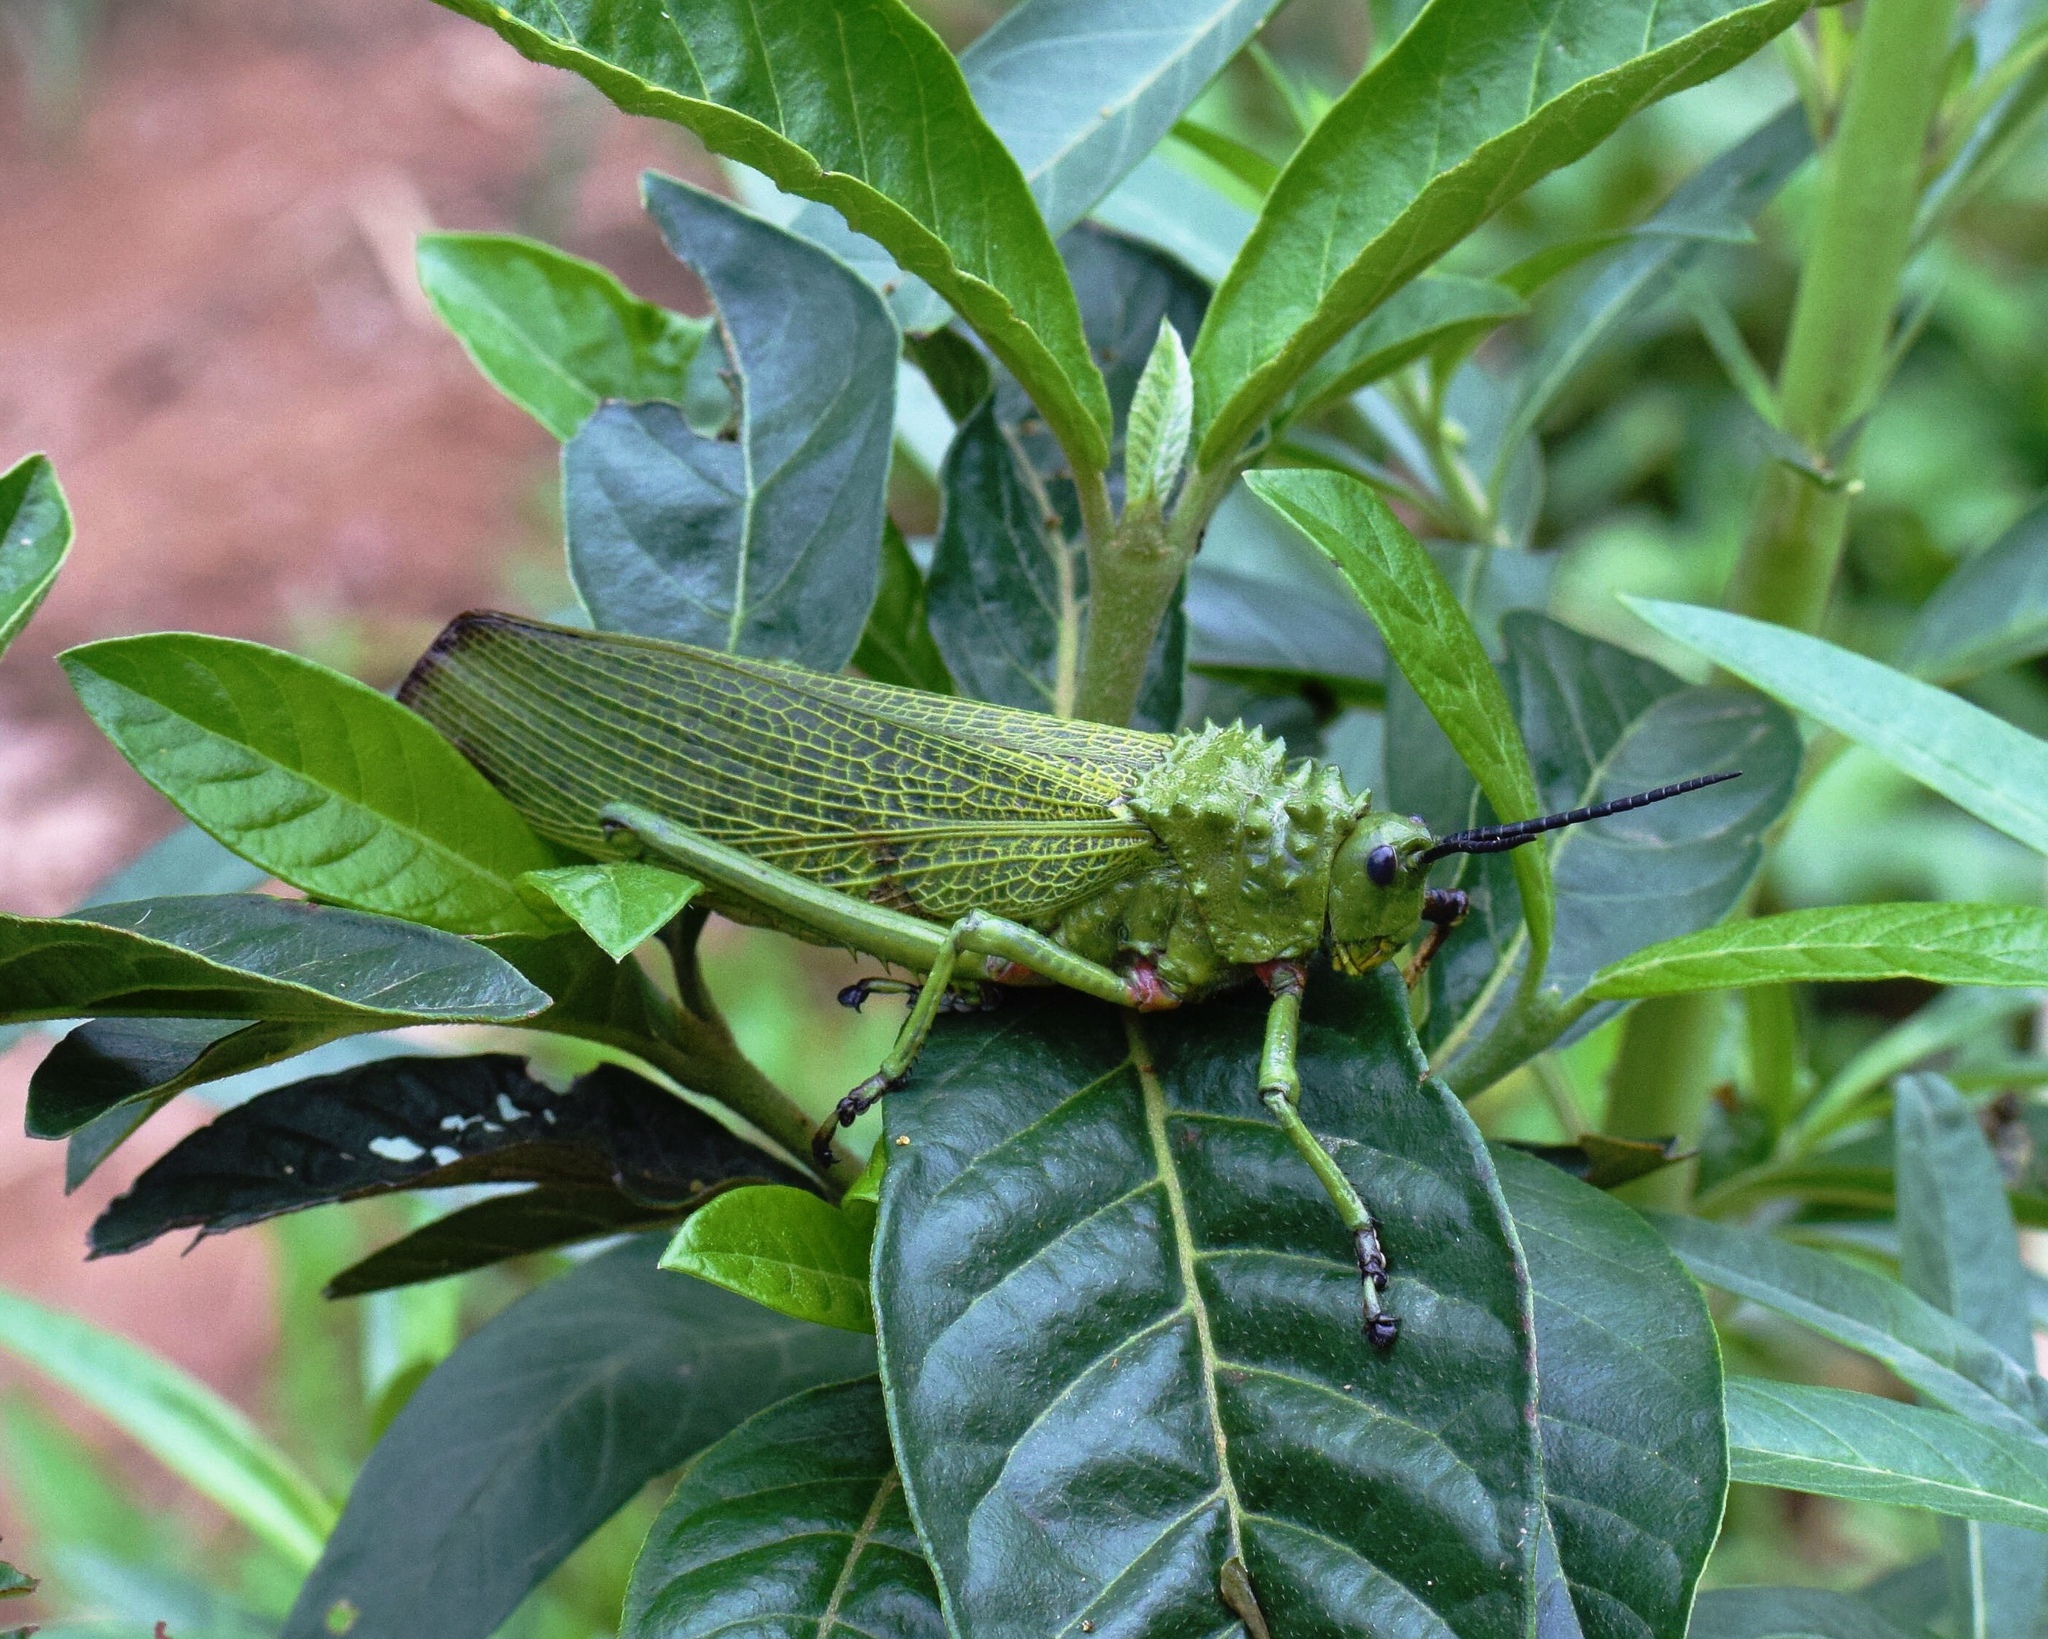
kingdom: Animalia
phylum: Arthropoda
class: Insecta
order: Orthoptera
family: Pyrgomorphidae
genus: Phymateus
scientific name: Phymateus viridipes
